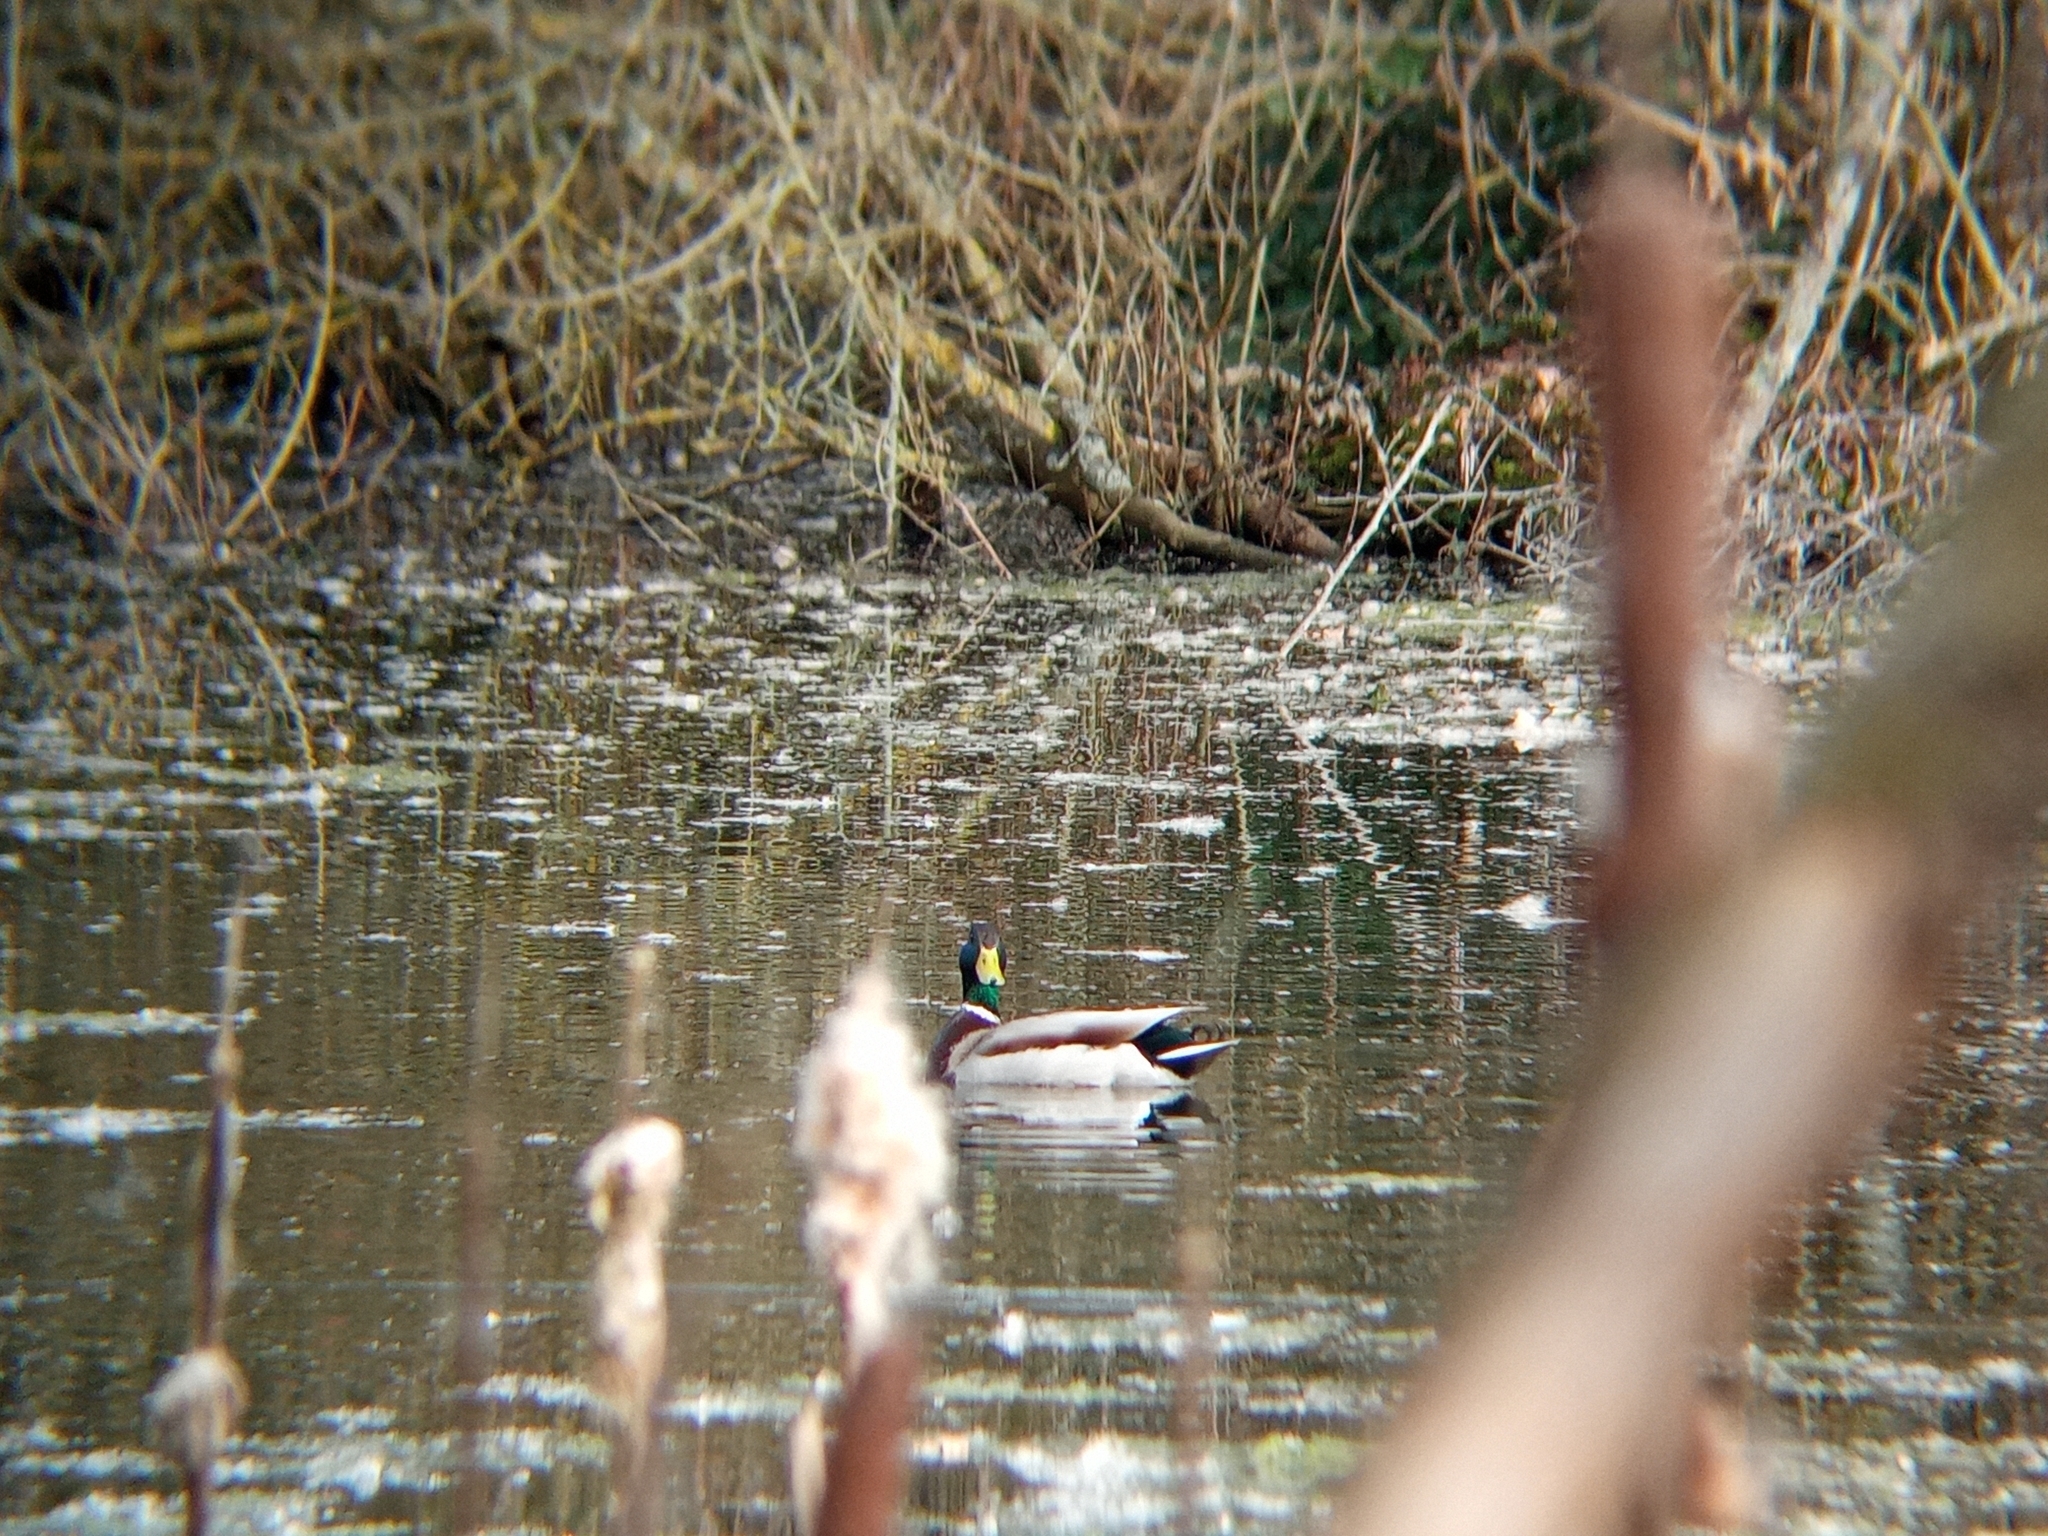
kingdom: Animalia
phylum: Chordata
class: Aves
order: Anseriformes
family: Anatidae
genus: Anas
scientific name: Anas platyrhynchos
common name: Mallard
